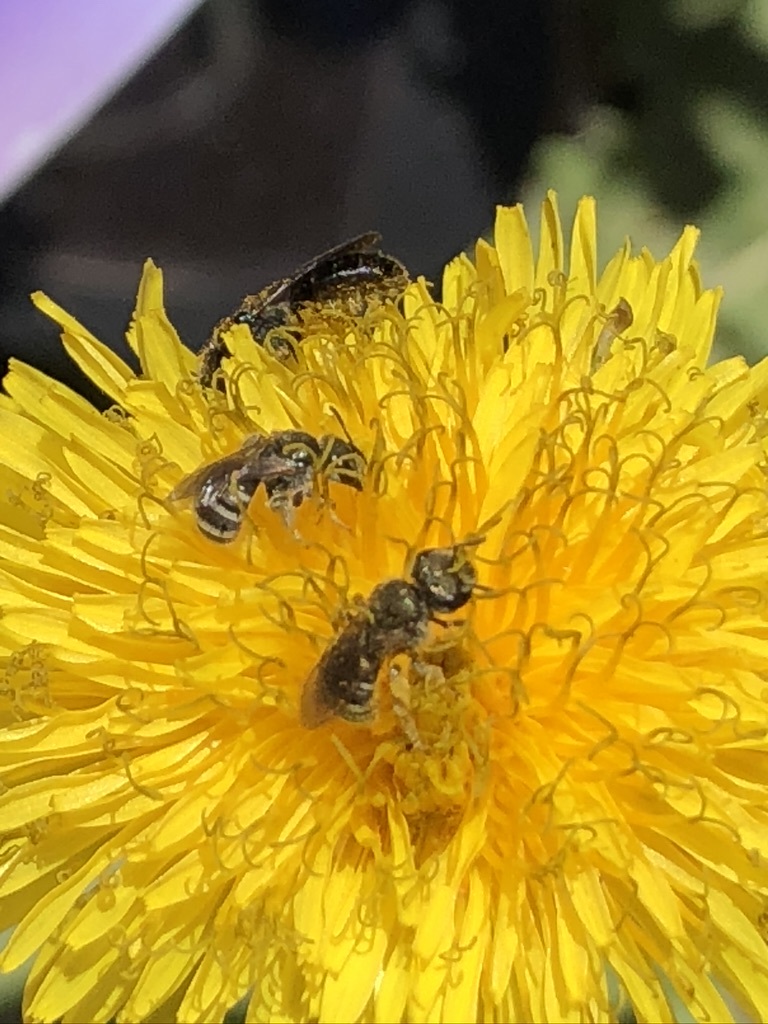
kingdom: Animalia
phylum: Arthropoda
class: Insecta
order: Hymenoptera
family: Halictidae
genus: Halictus
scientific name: Halictus tripartitus
